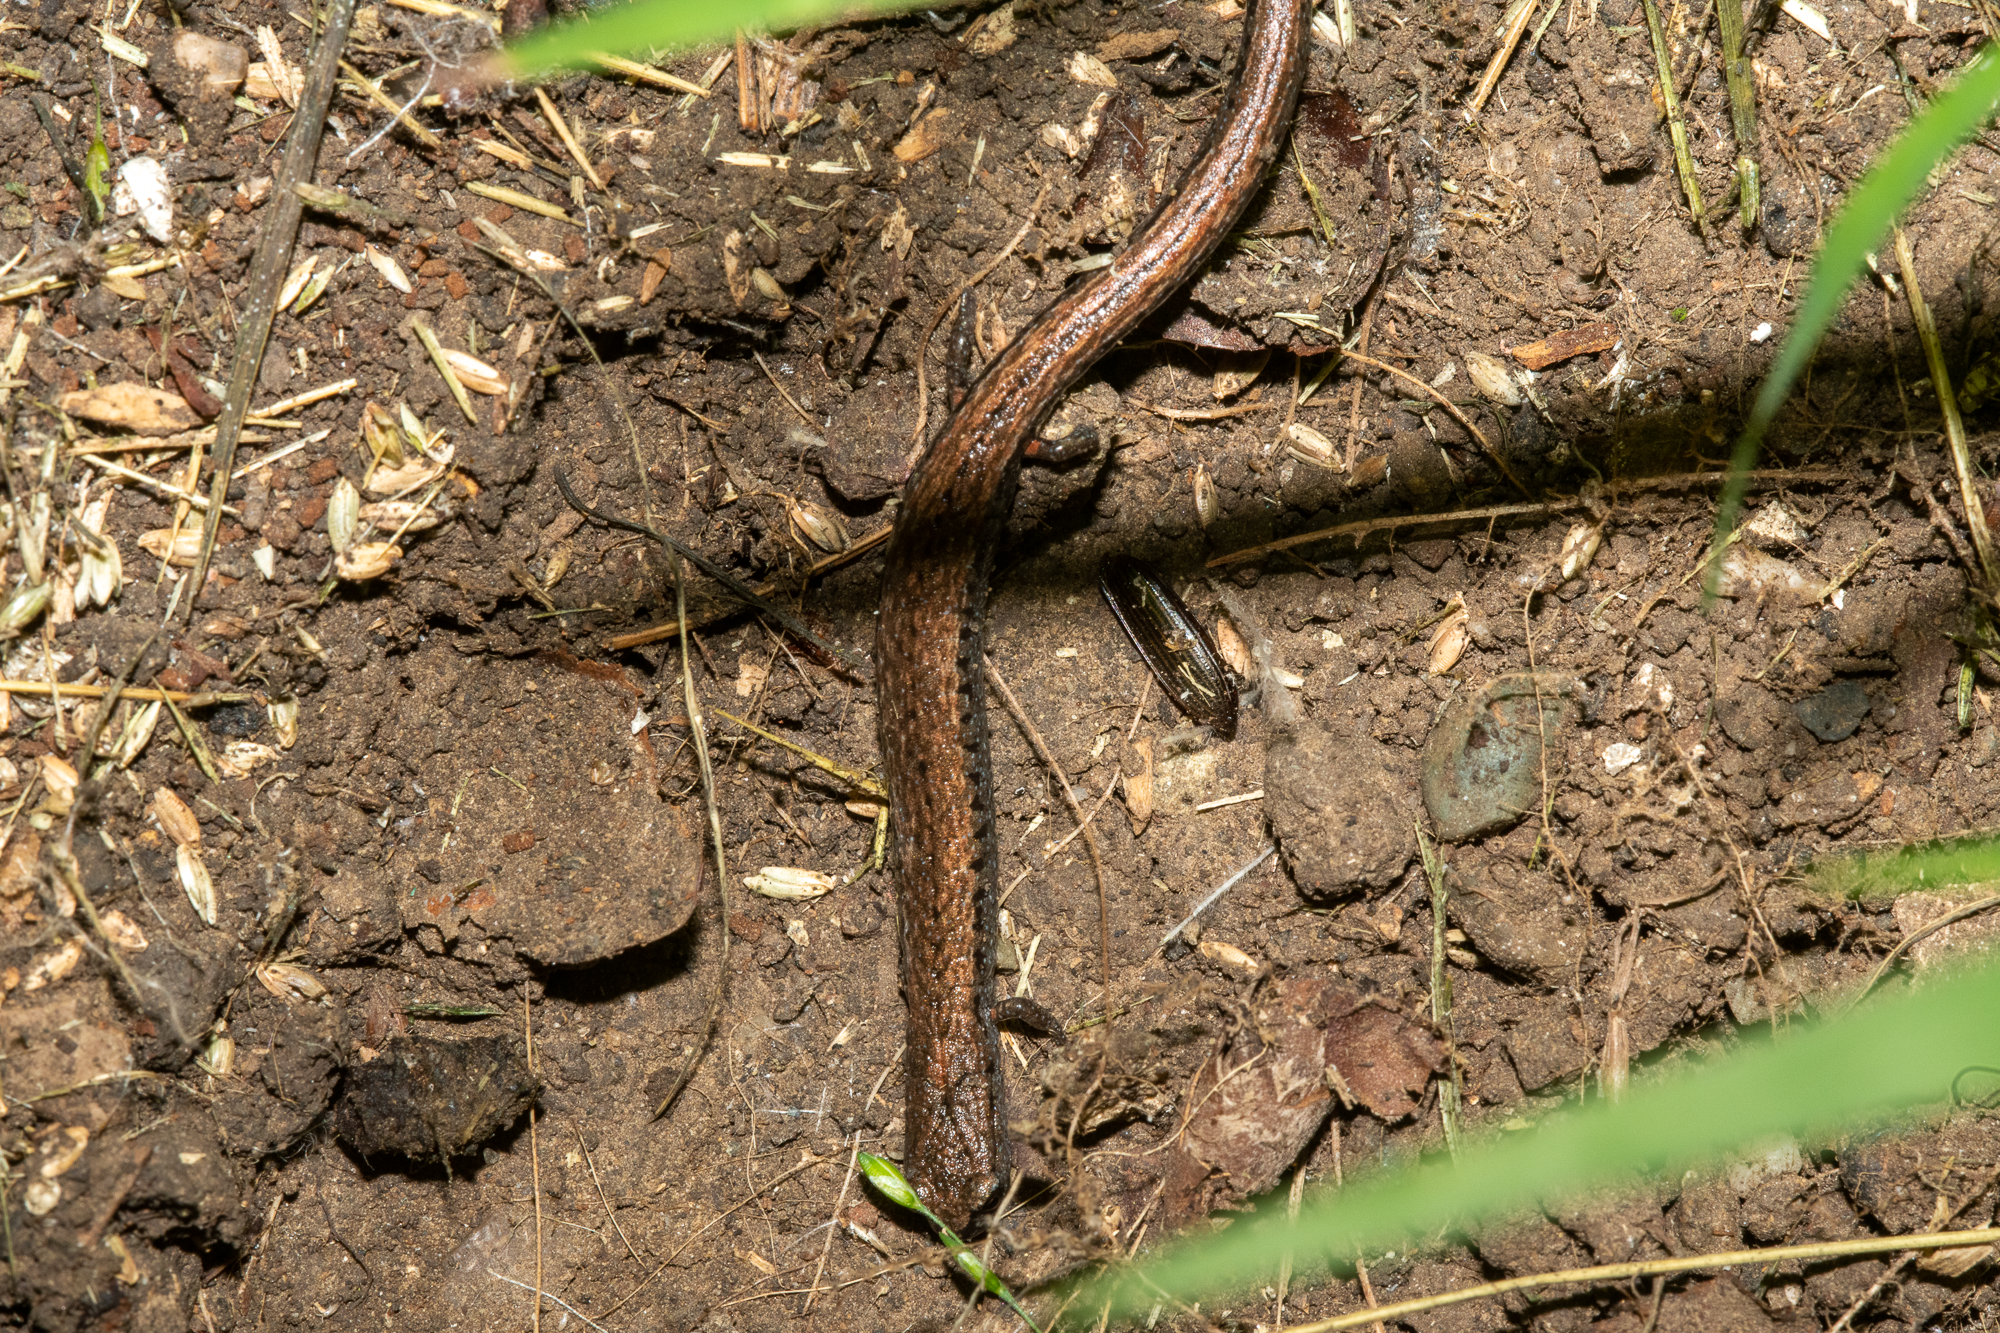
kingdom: Animalia
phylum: Chordata
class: Amphibia
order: Caudata
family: Plethodontidae
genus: Batrachoseps
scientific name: Batrachoseps attenuatus
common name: California slender salamander
